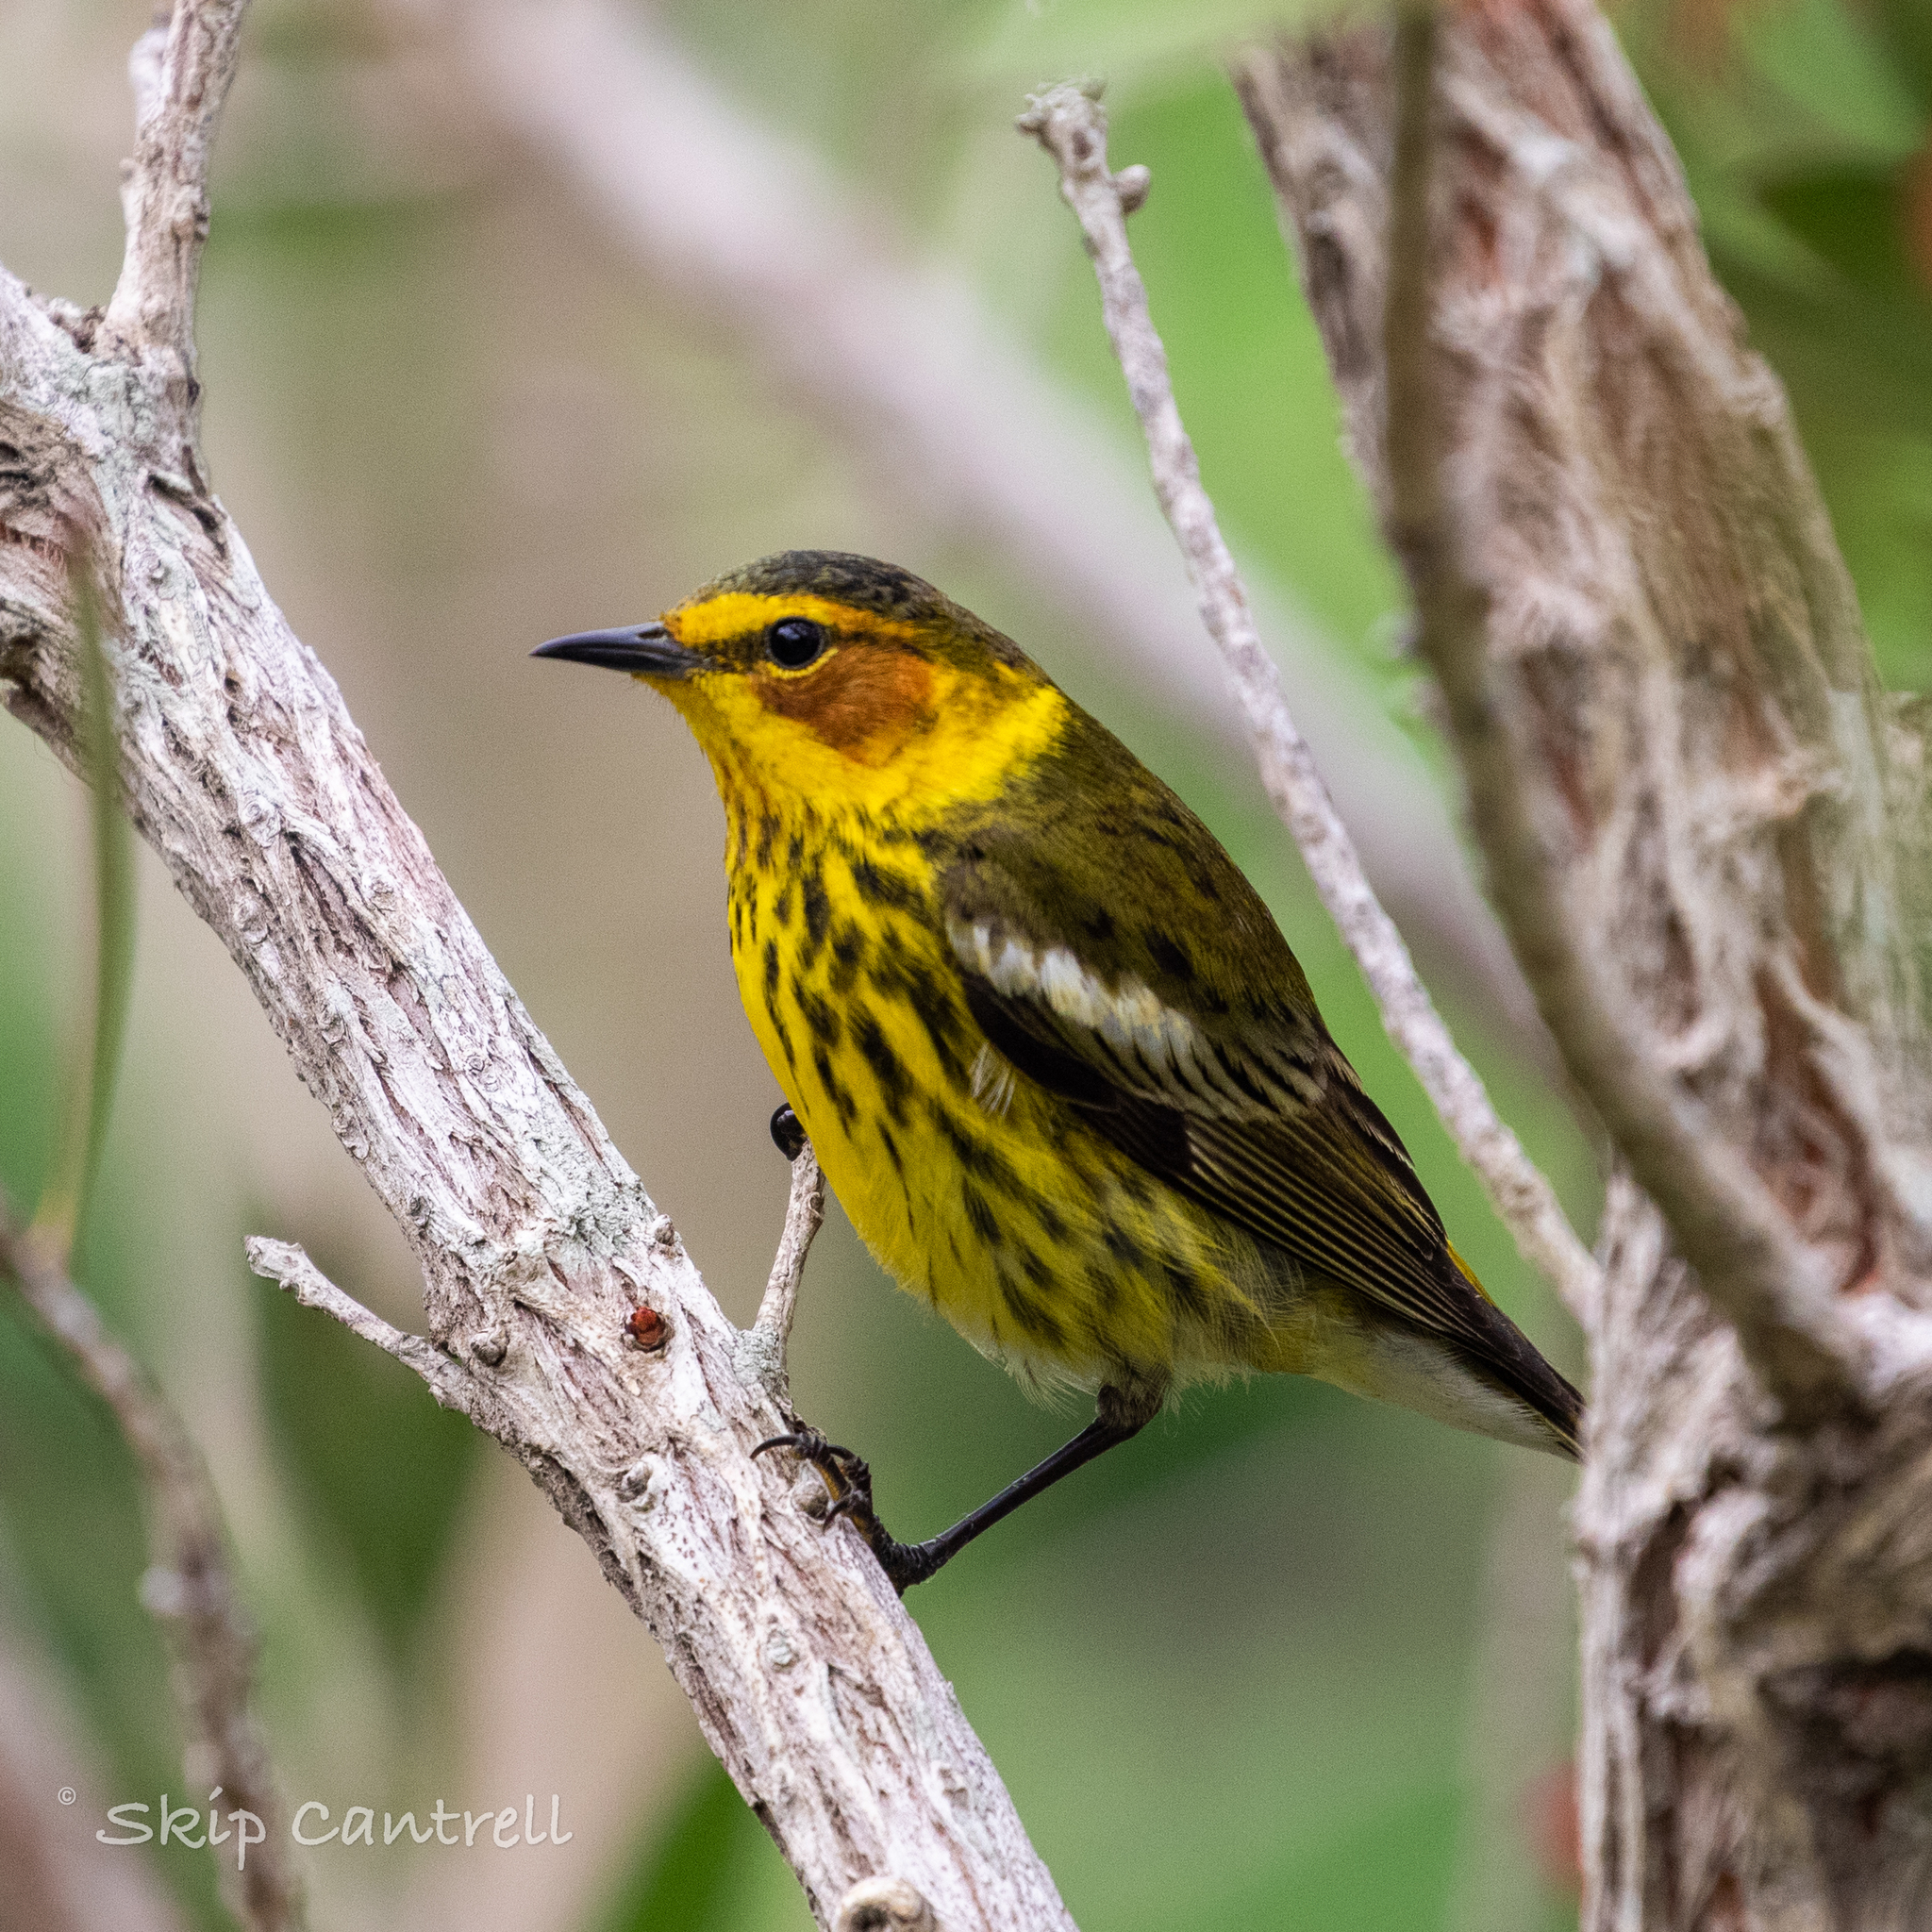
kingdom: Animalia
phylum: Chordata
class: Aves
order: Passeriformes
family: Parulidae
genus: Setophaga
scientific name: Setophaga tigrina
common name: Cape may warbler
